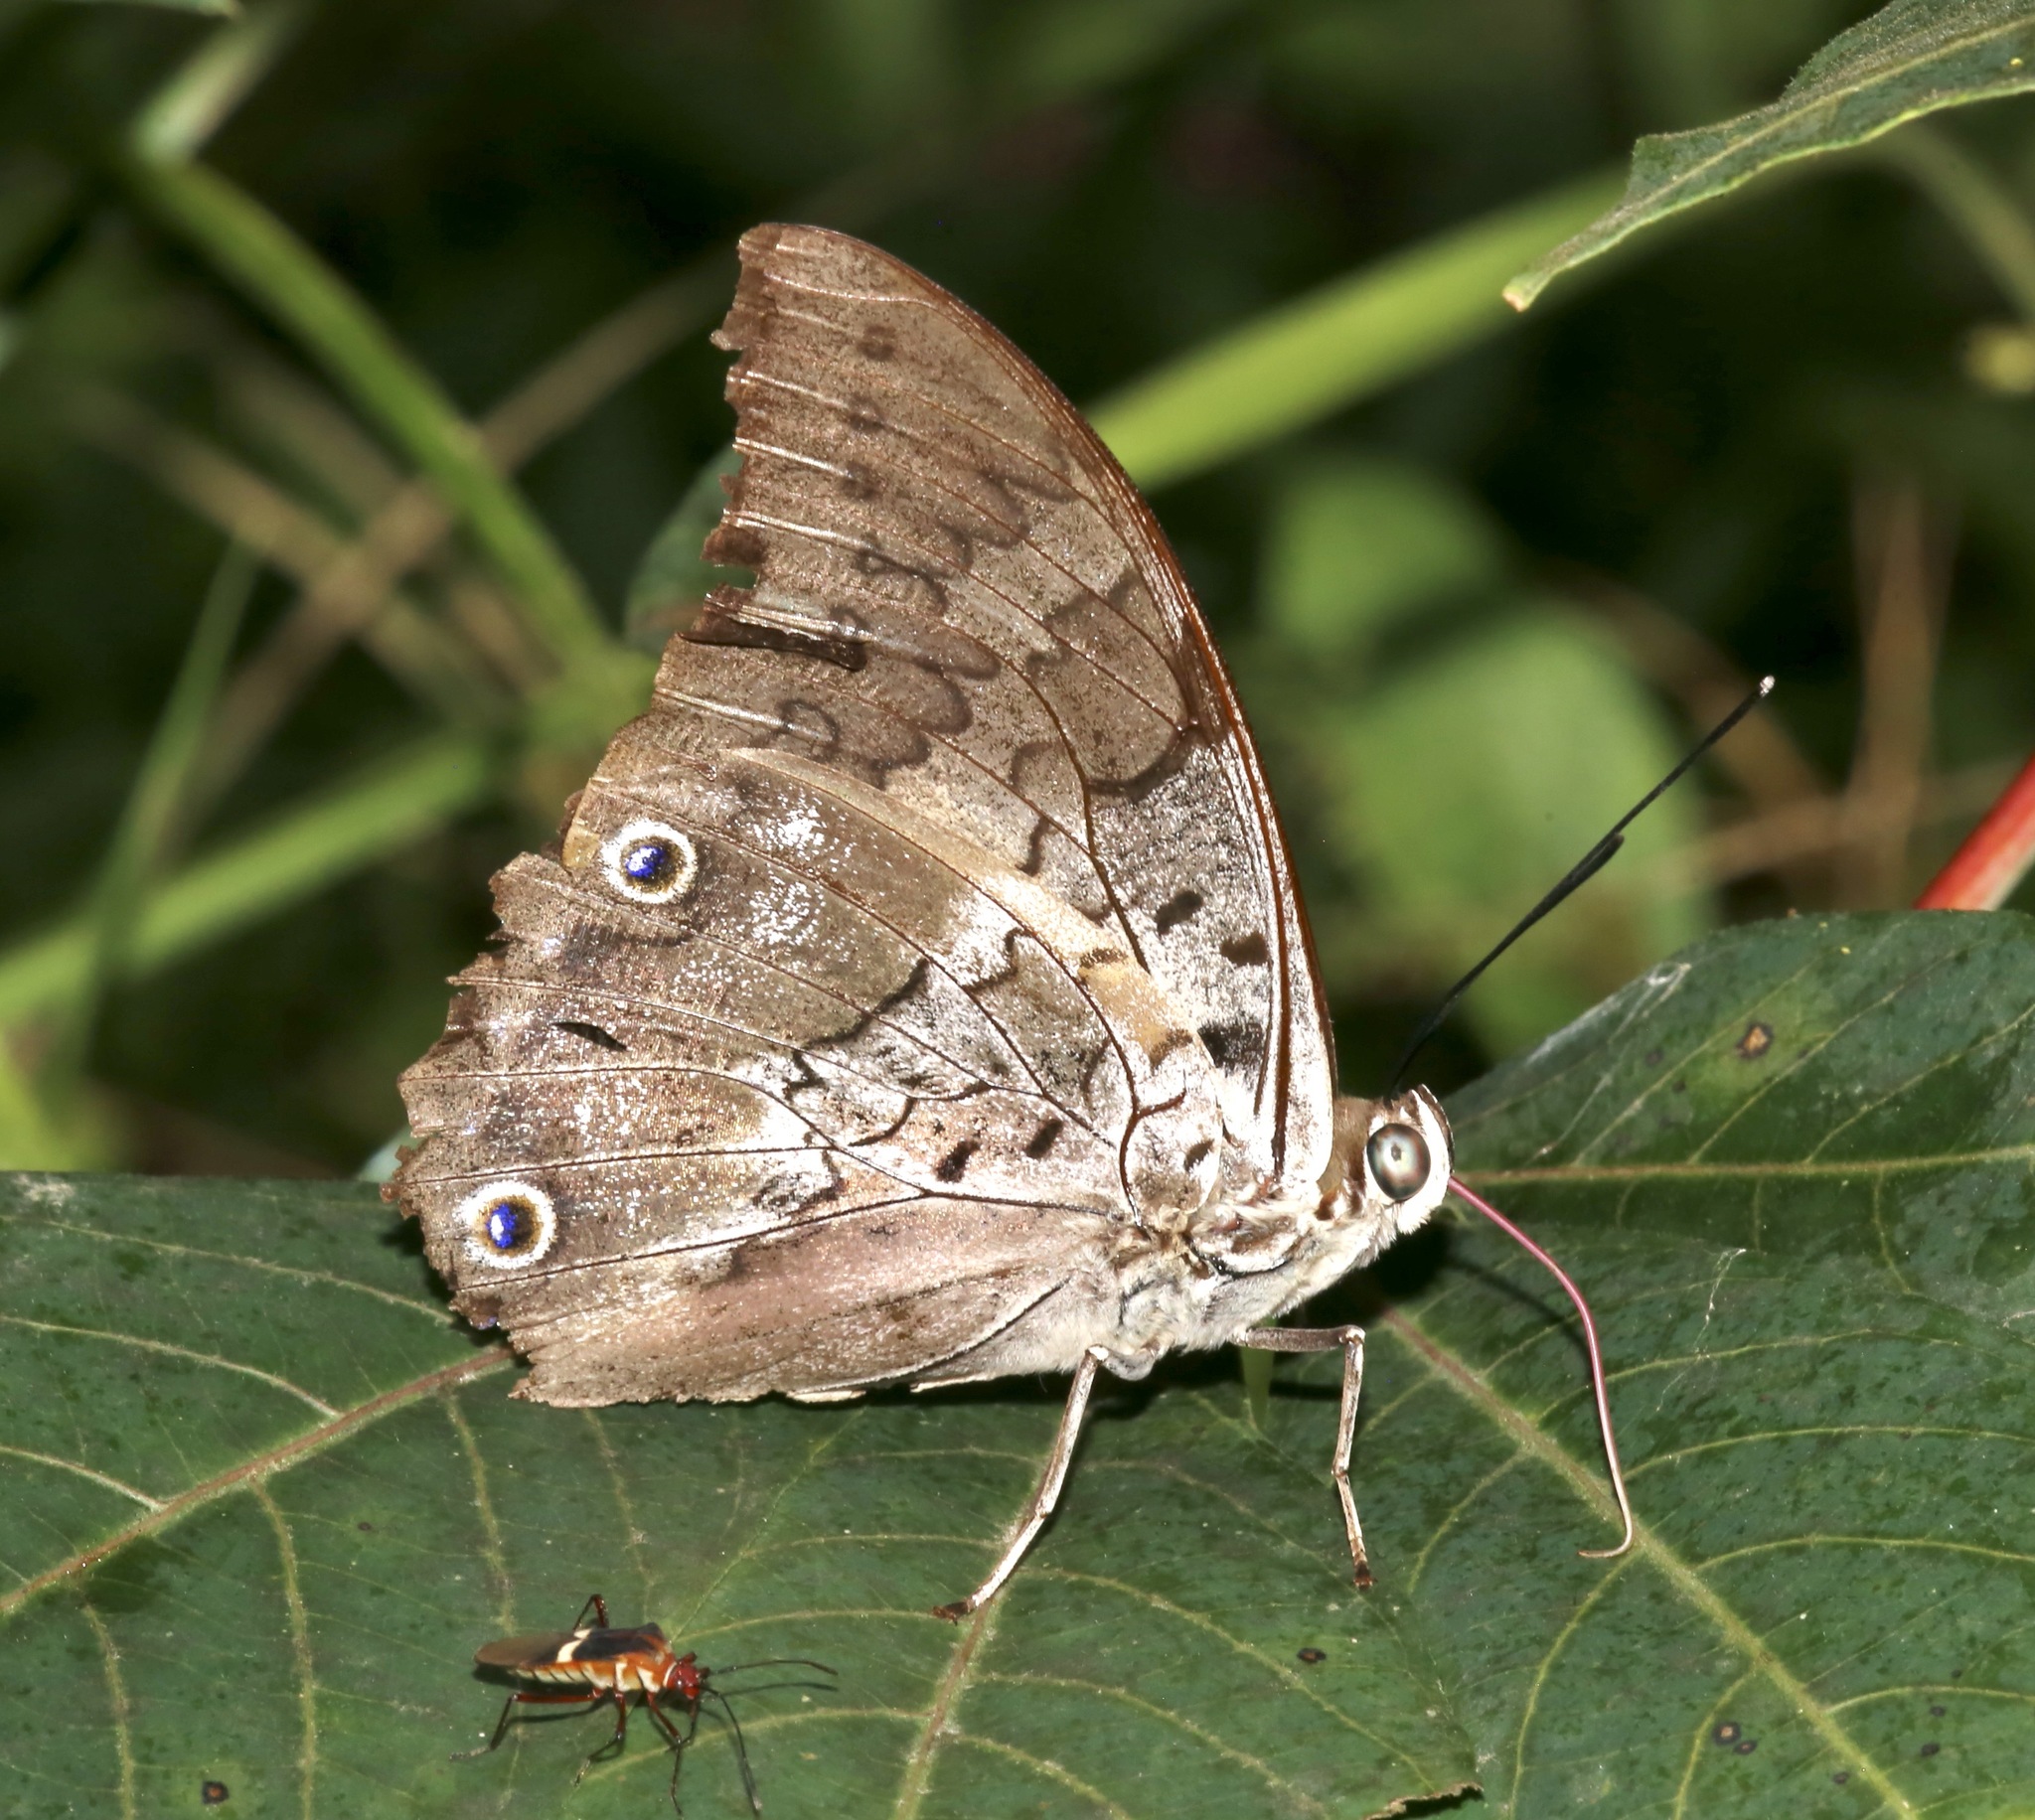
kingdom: Animalia
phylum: Arthropoda
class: Insecta
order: Lepidoptera
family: Nymphalidae
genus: Prepona
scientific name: Prepona laertes
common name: Butterfly
